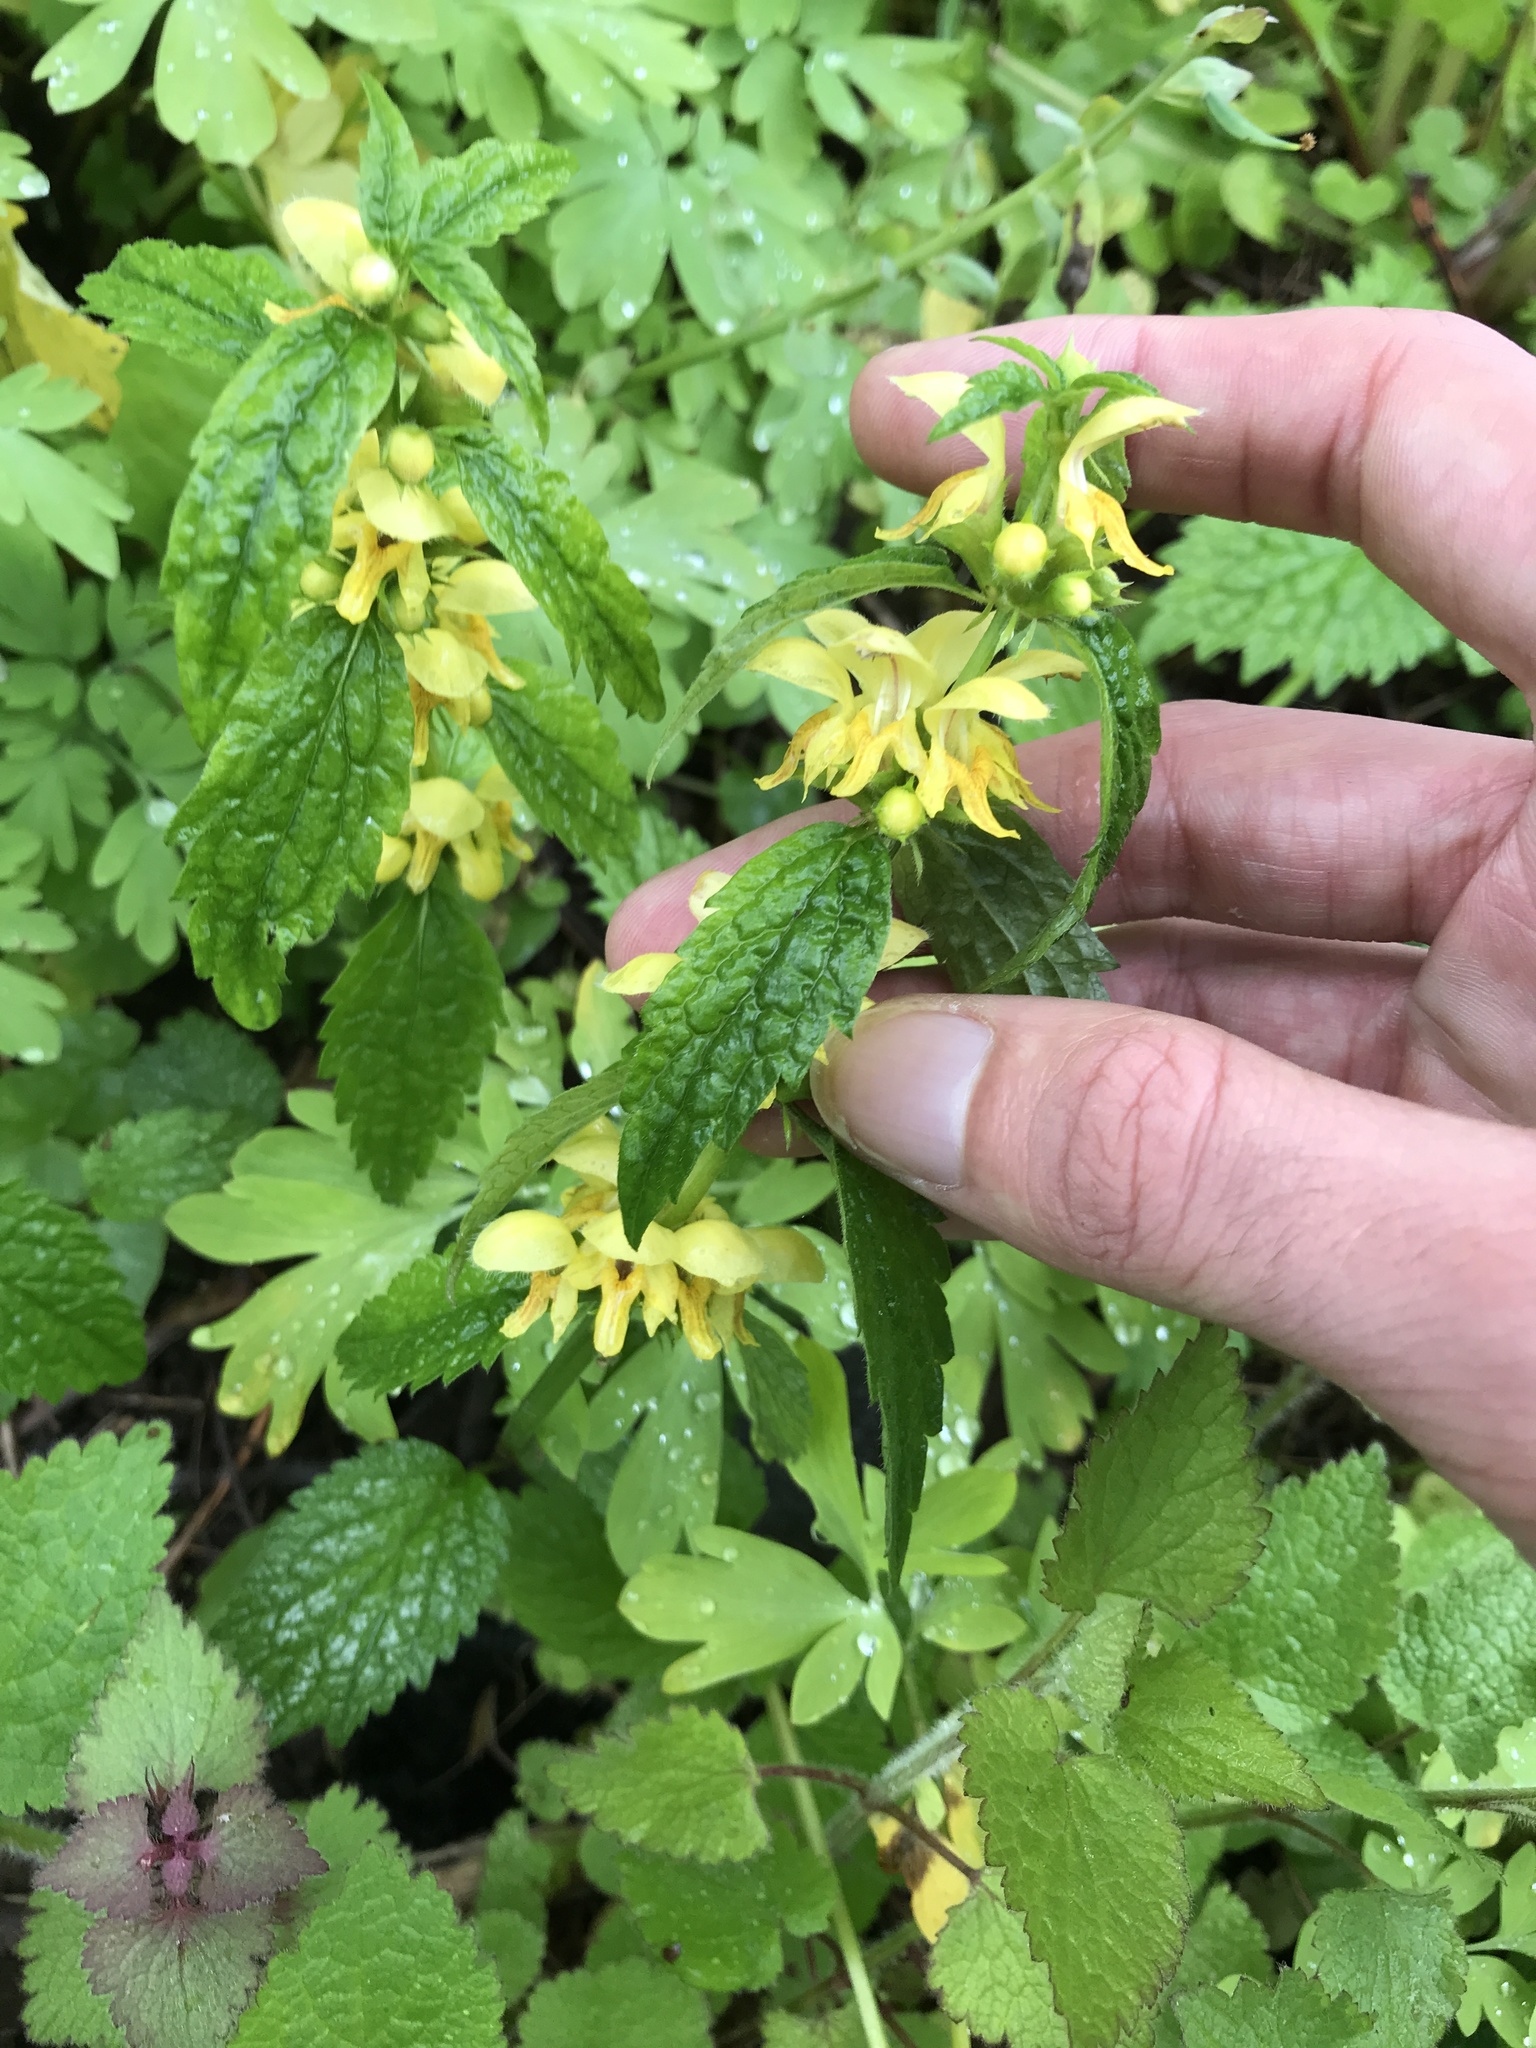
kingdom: Plantae
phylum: Tracheophyta
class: Magnoliopsida
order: Lamiales
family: Lamiaceae
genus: Lamium
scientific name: Lamium galeobdolon
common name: Yellow archangel
